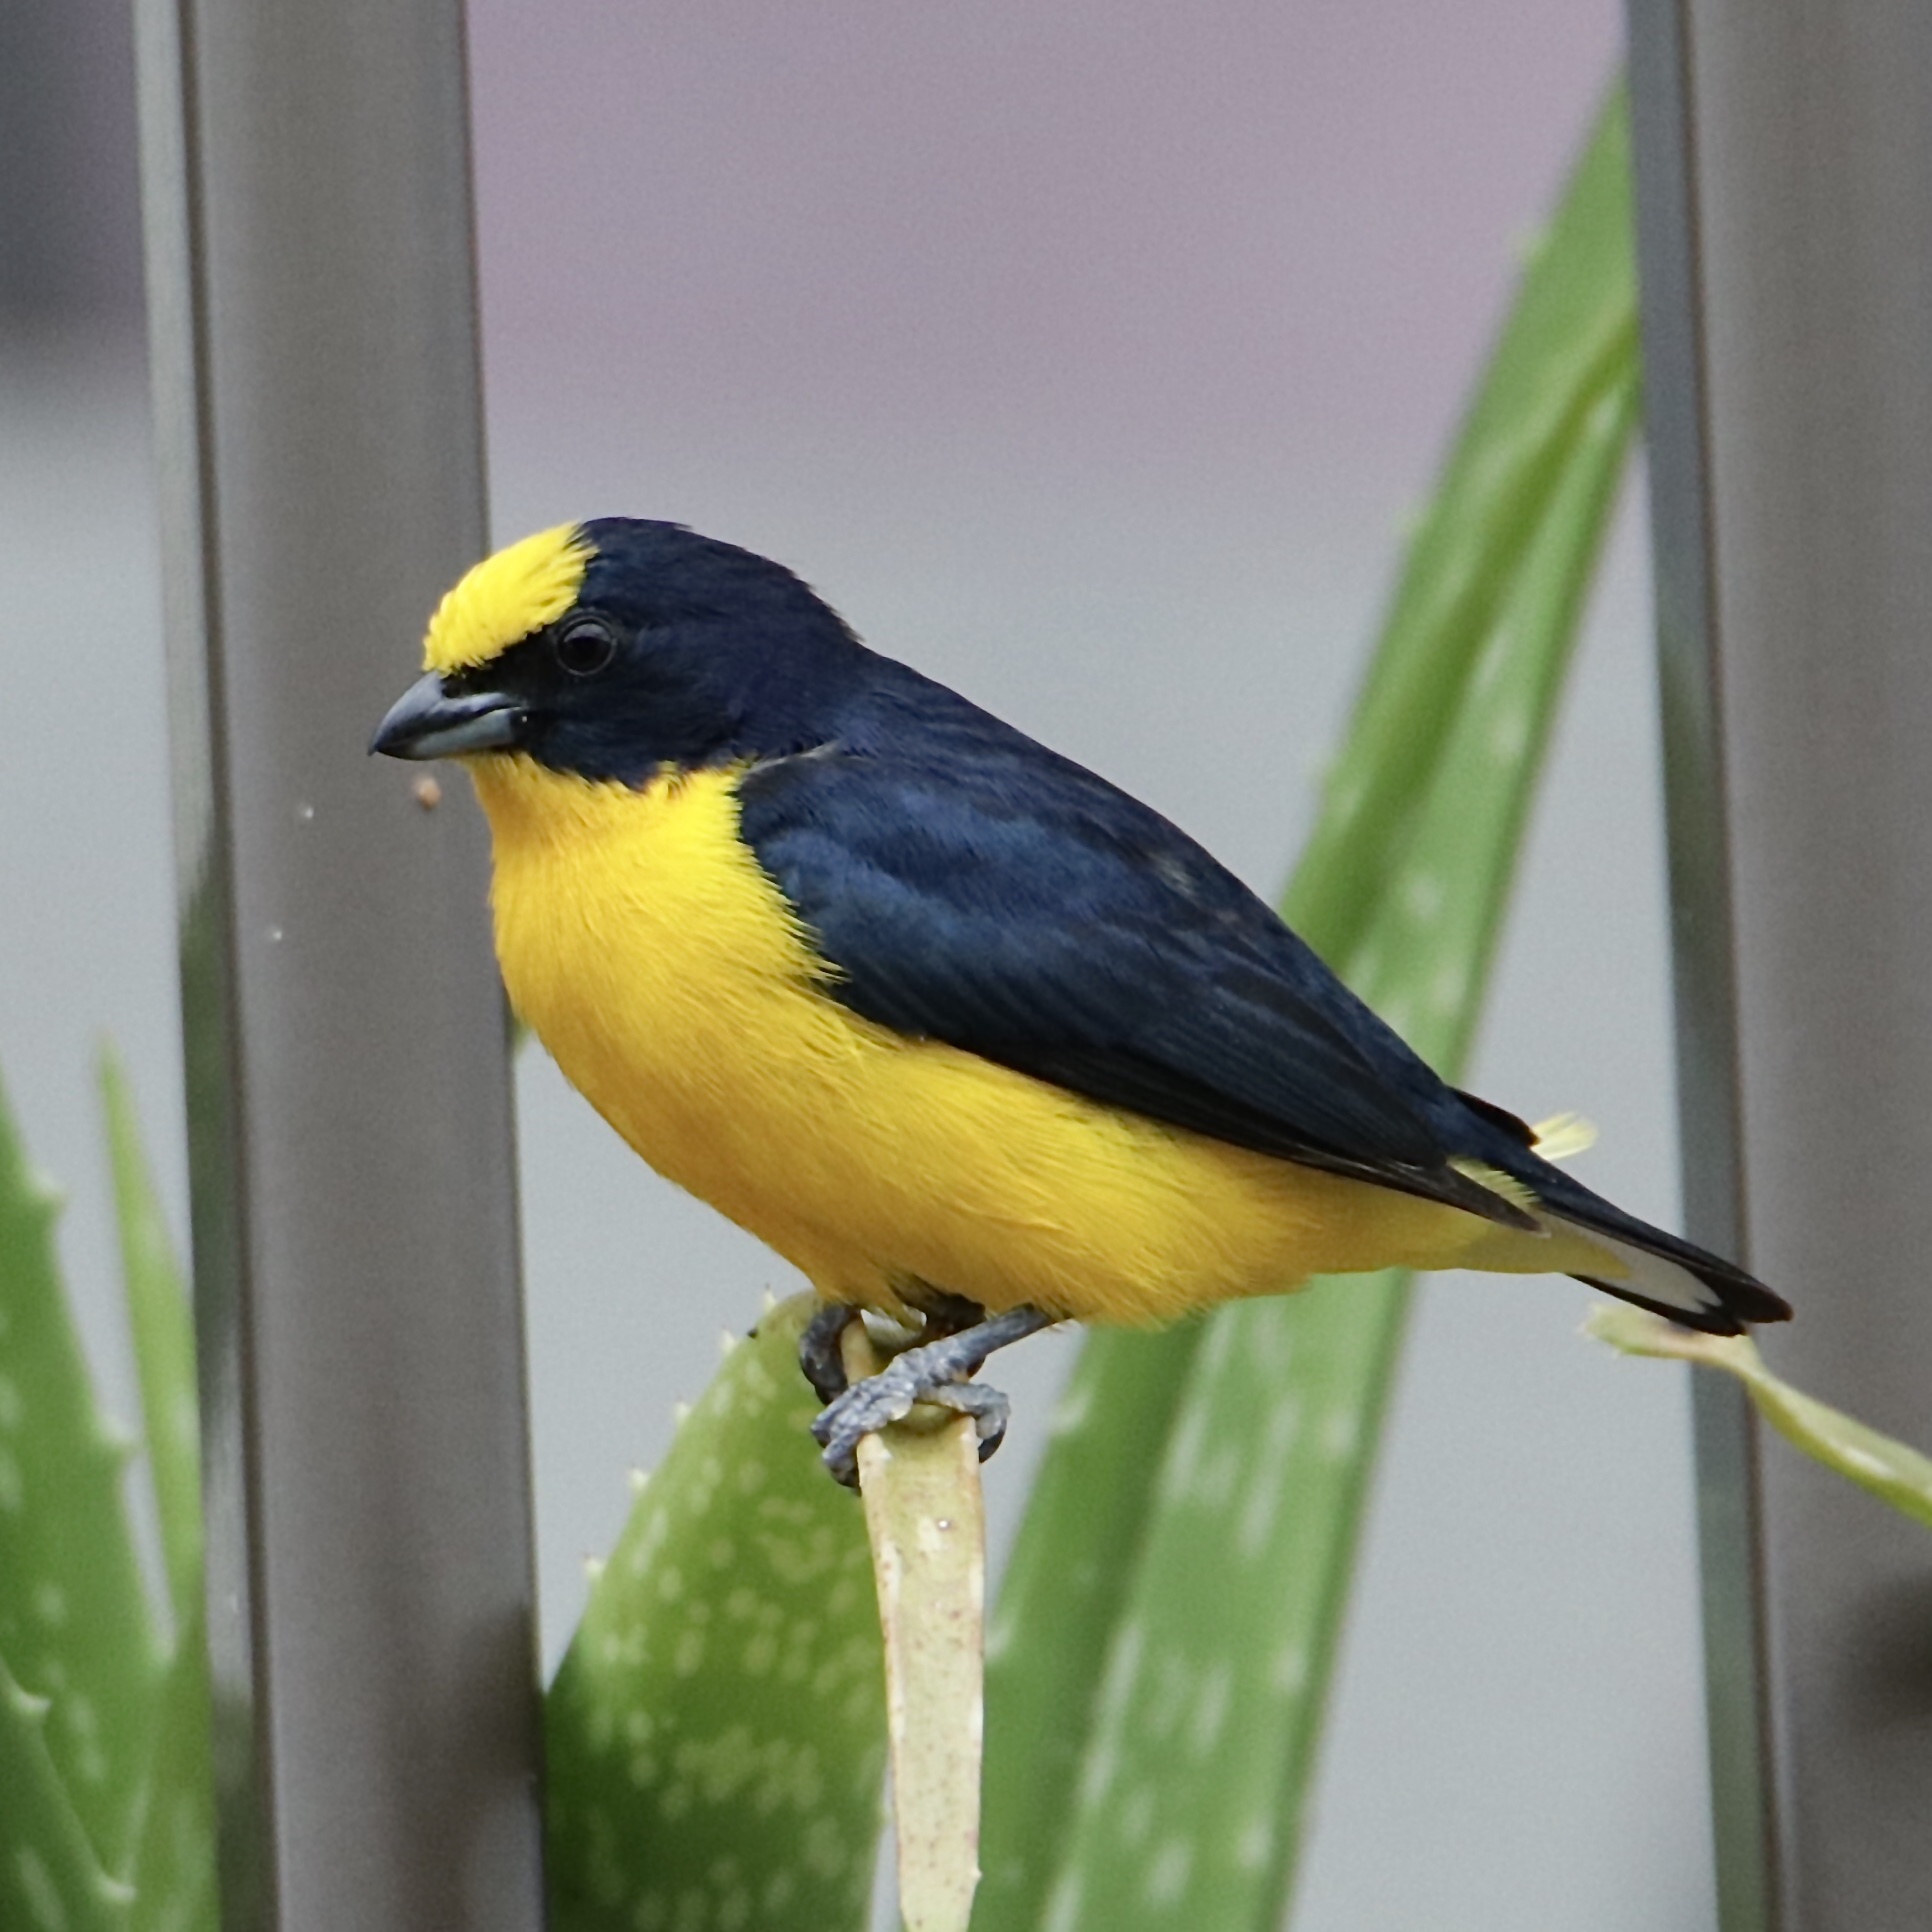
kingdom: Animalia
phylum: Chordata
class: Aves
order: Passeriformes
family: Fringillidae
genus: Euphonia
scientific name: Euphonia laniirostris
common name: Thick-billed euphonia
